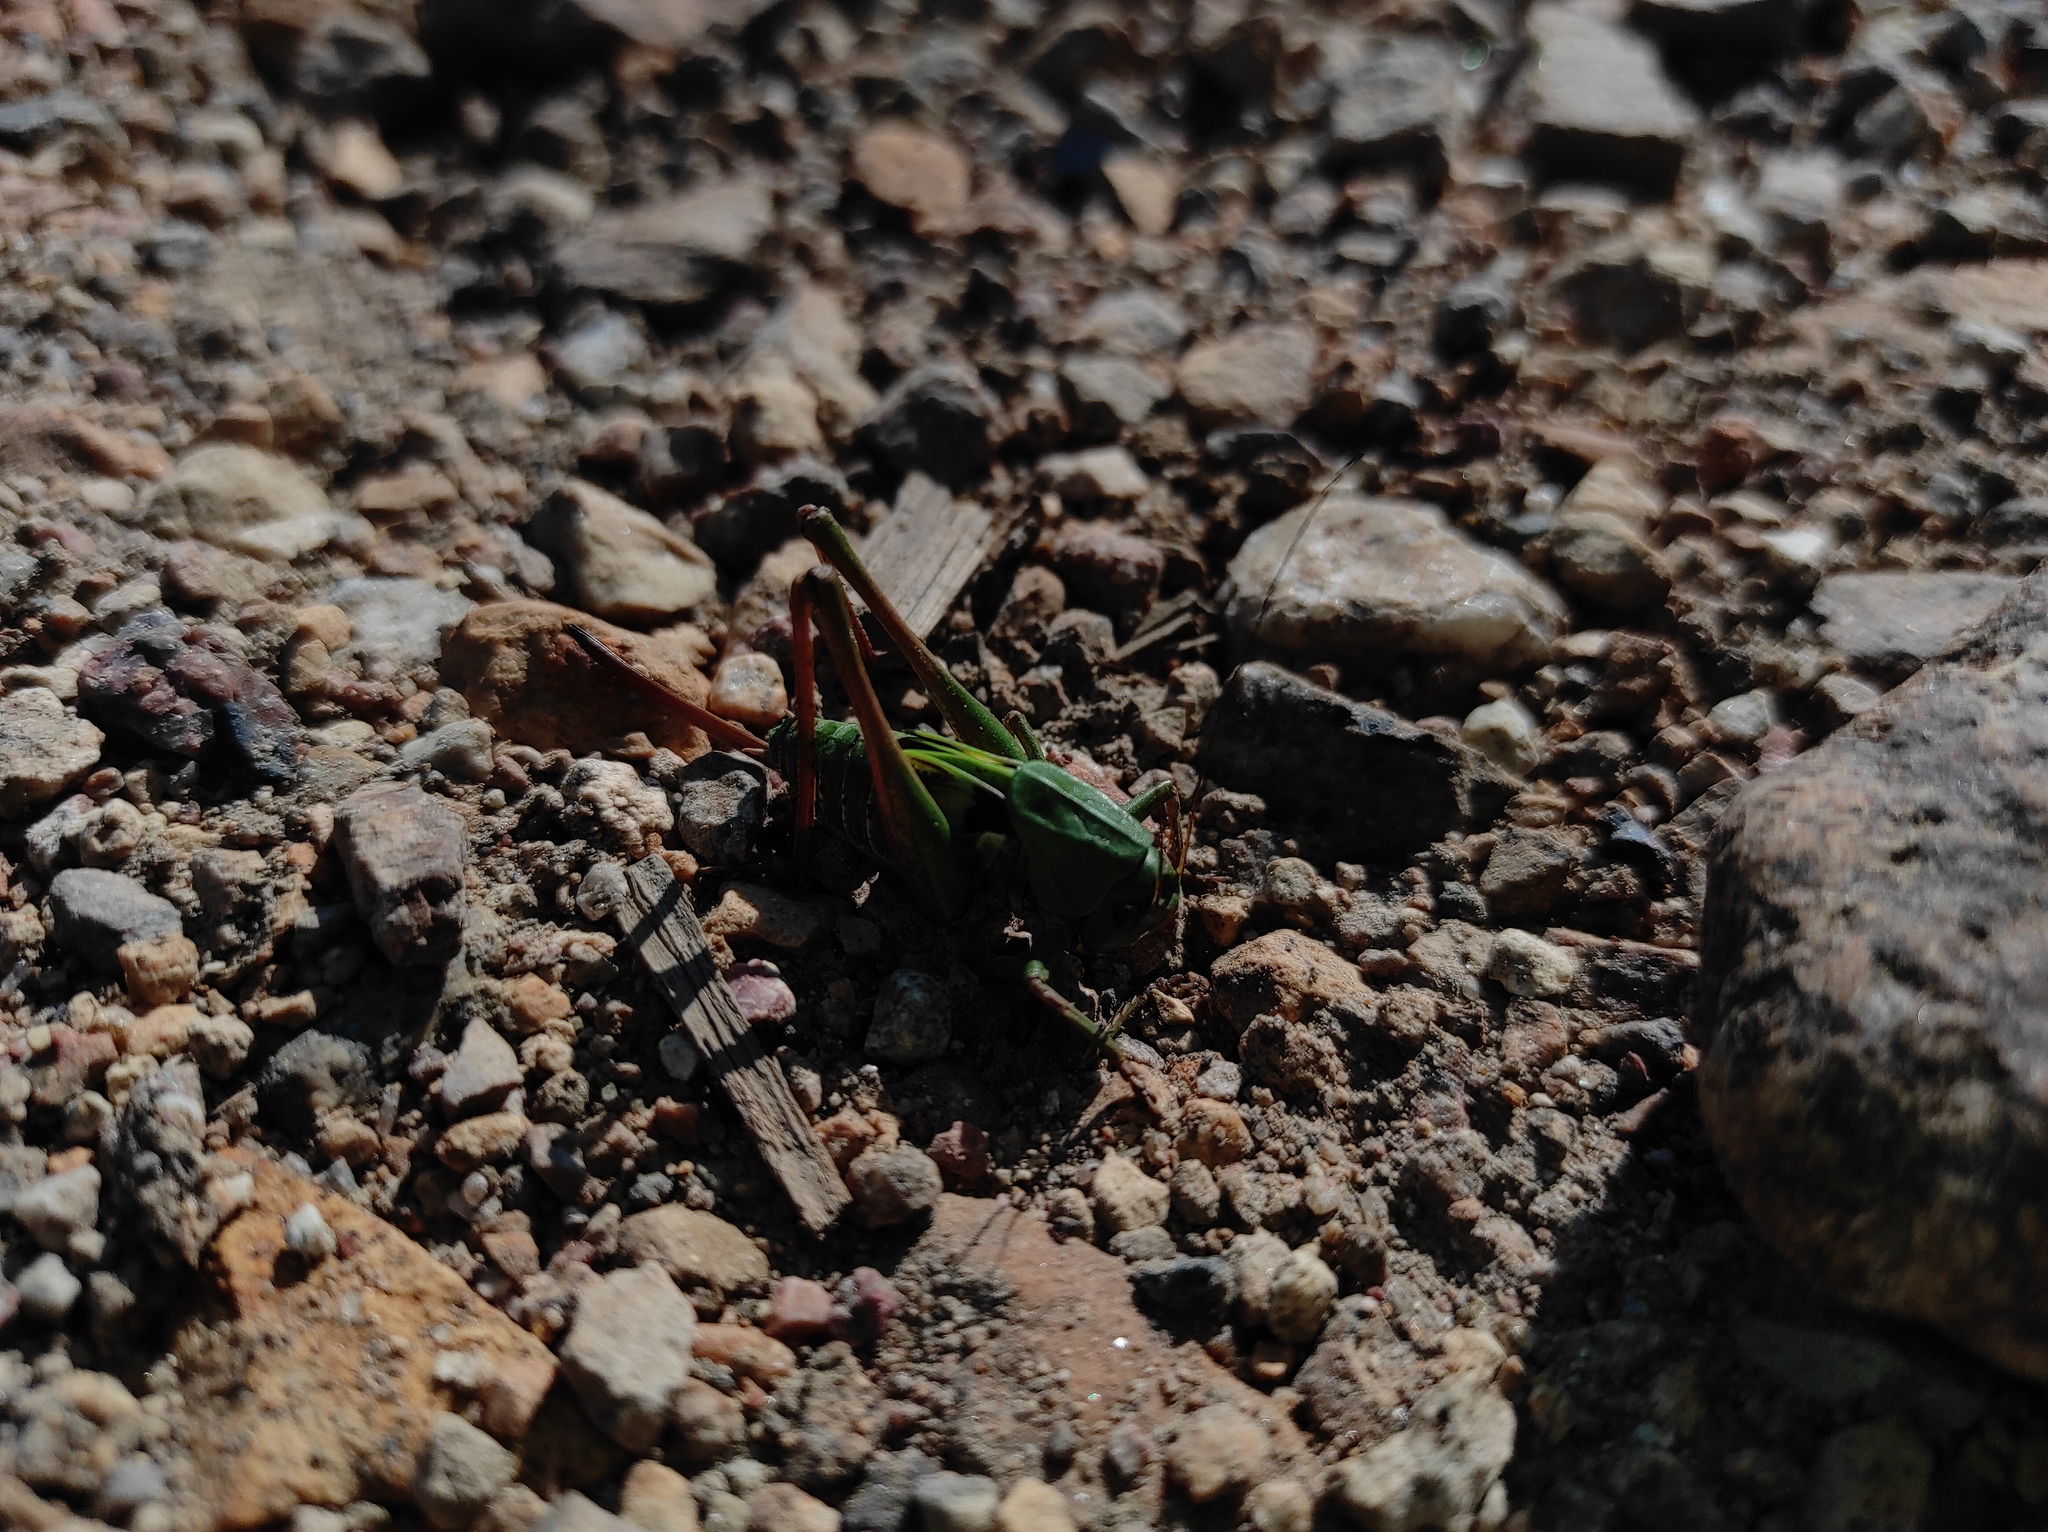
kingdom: Animalia
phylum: Arthropoda
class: Insecta
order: Orthoptera
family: Tettigoniidae
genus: Decticus
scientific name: Decticus verrucivorus
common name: Wart-biter
